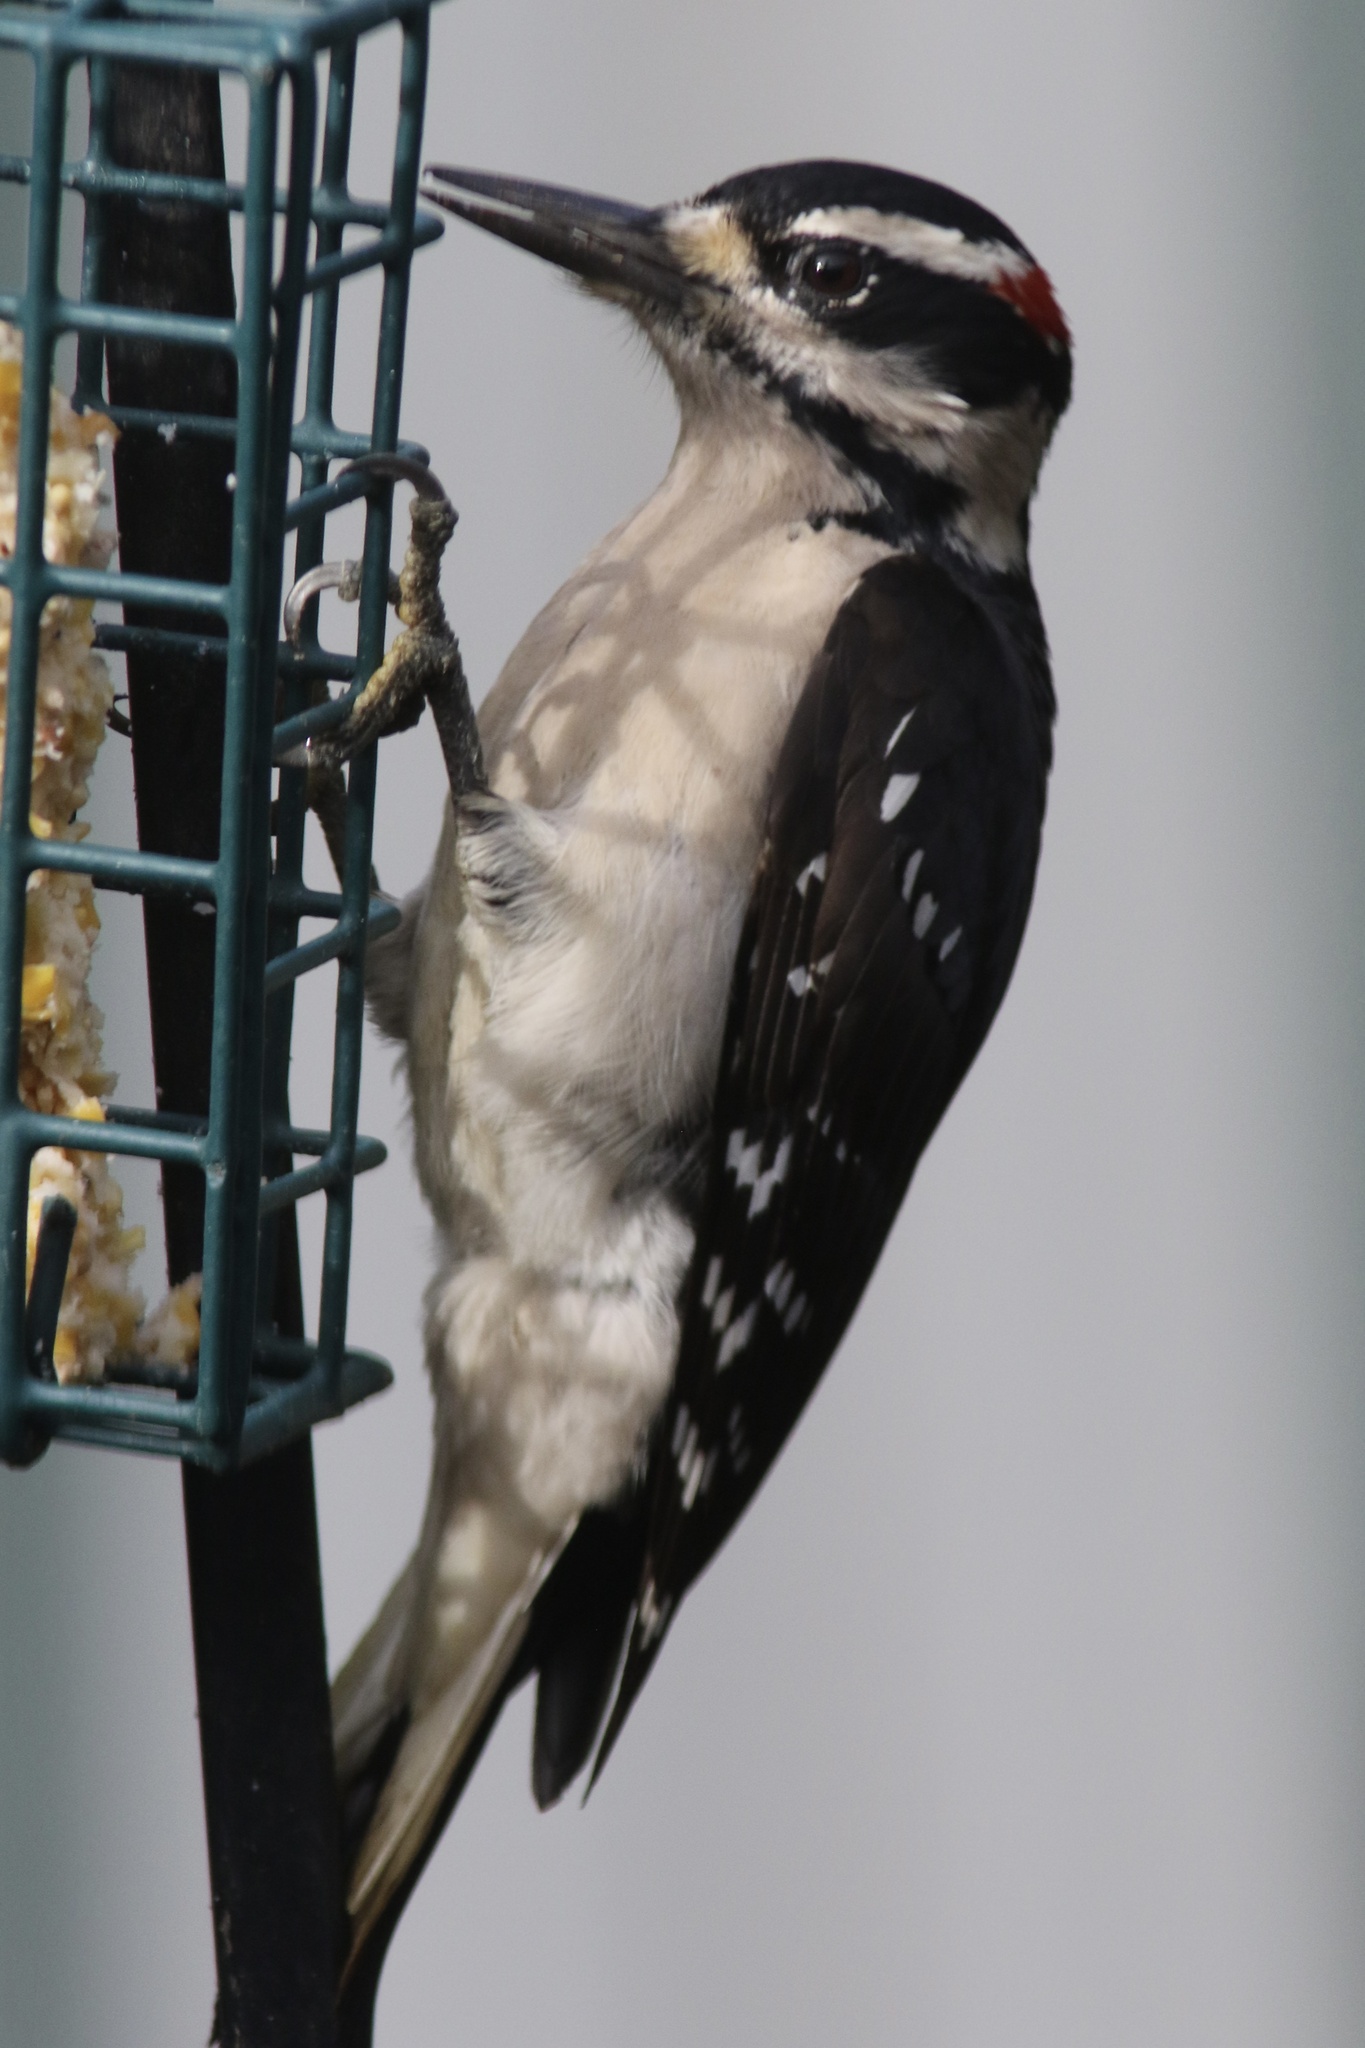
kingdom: Animalia
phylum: Chordata
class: Aves
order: Piciformes
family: Picidae
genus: Leuconotopicus
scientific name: Leuconotopicus villosus
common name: Hairy woodpecker
